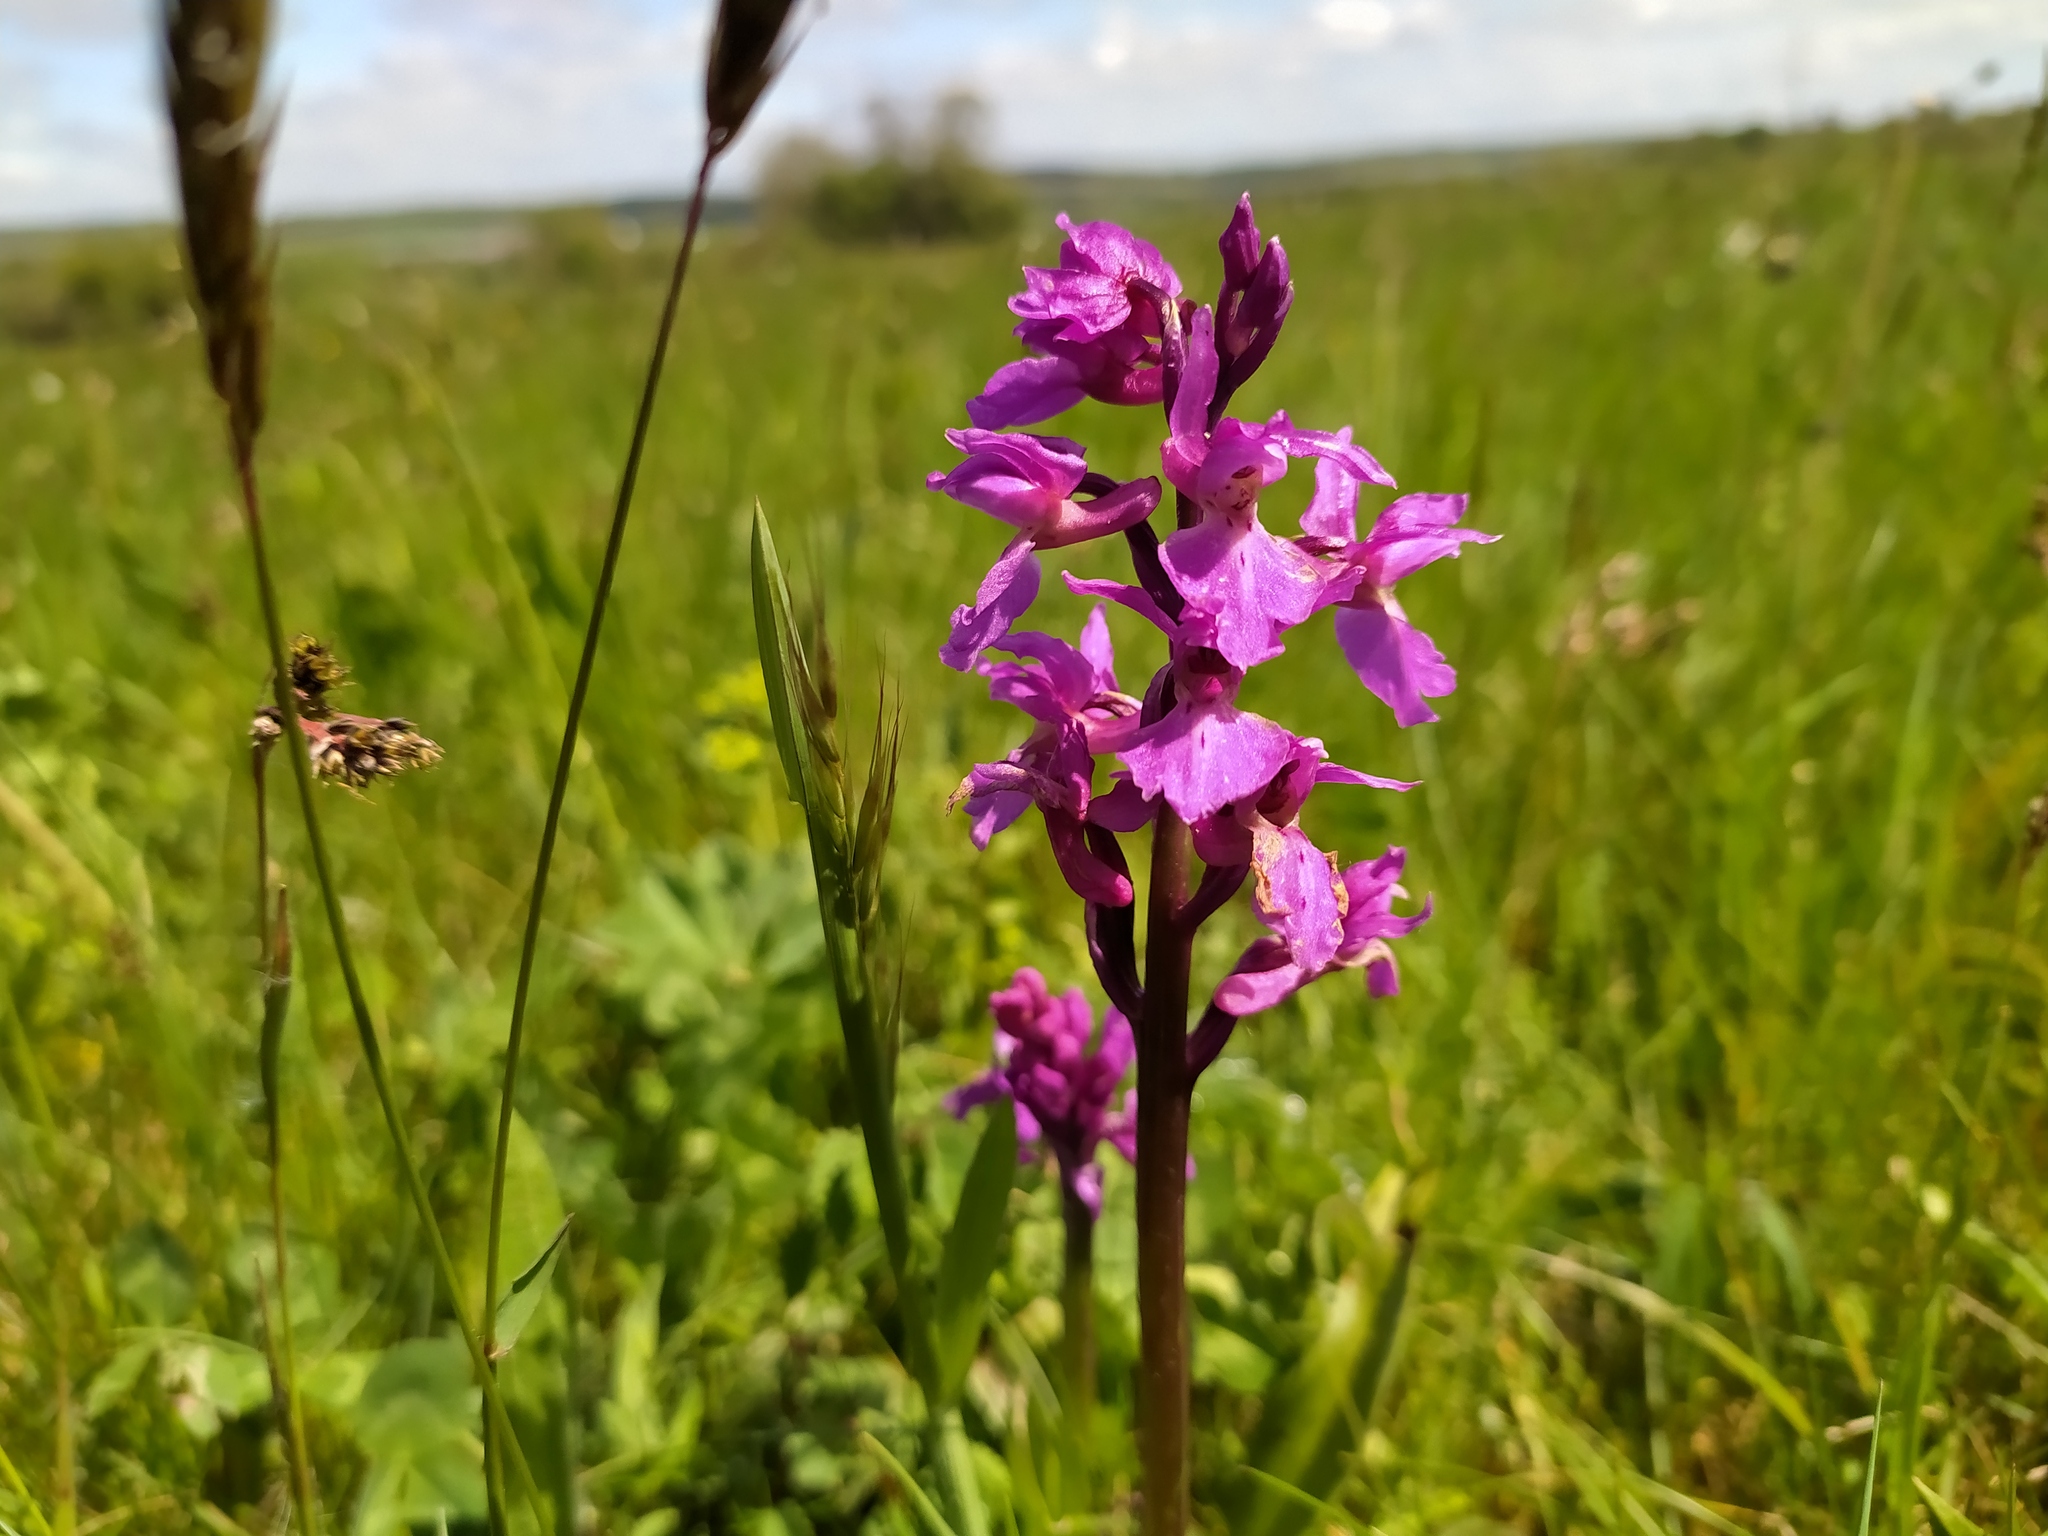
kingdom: Plantae
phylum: Tracheophyta
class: Liliopsida
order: Asparagales
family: Orchidaceae
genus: Orchis
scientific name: Orchis mascula
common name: Early-purple orchid
